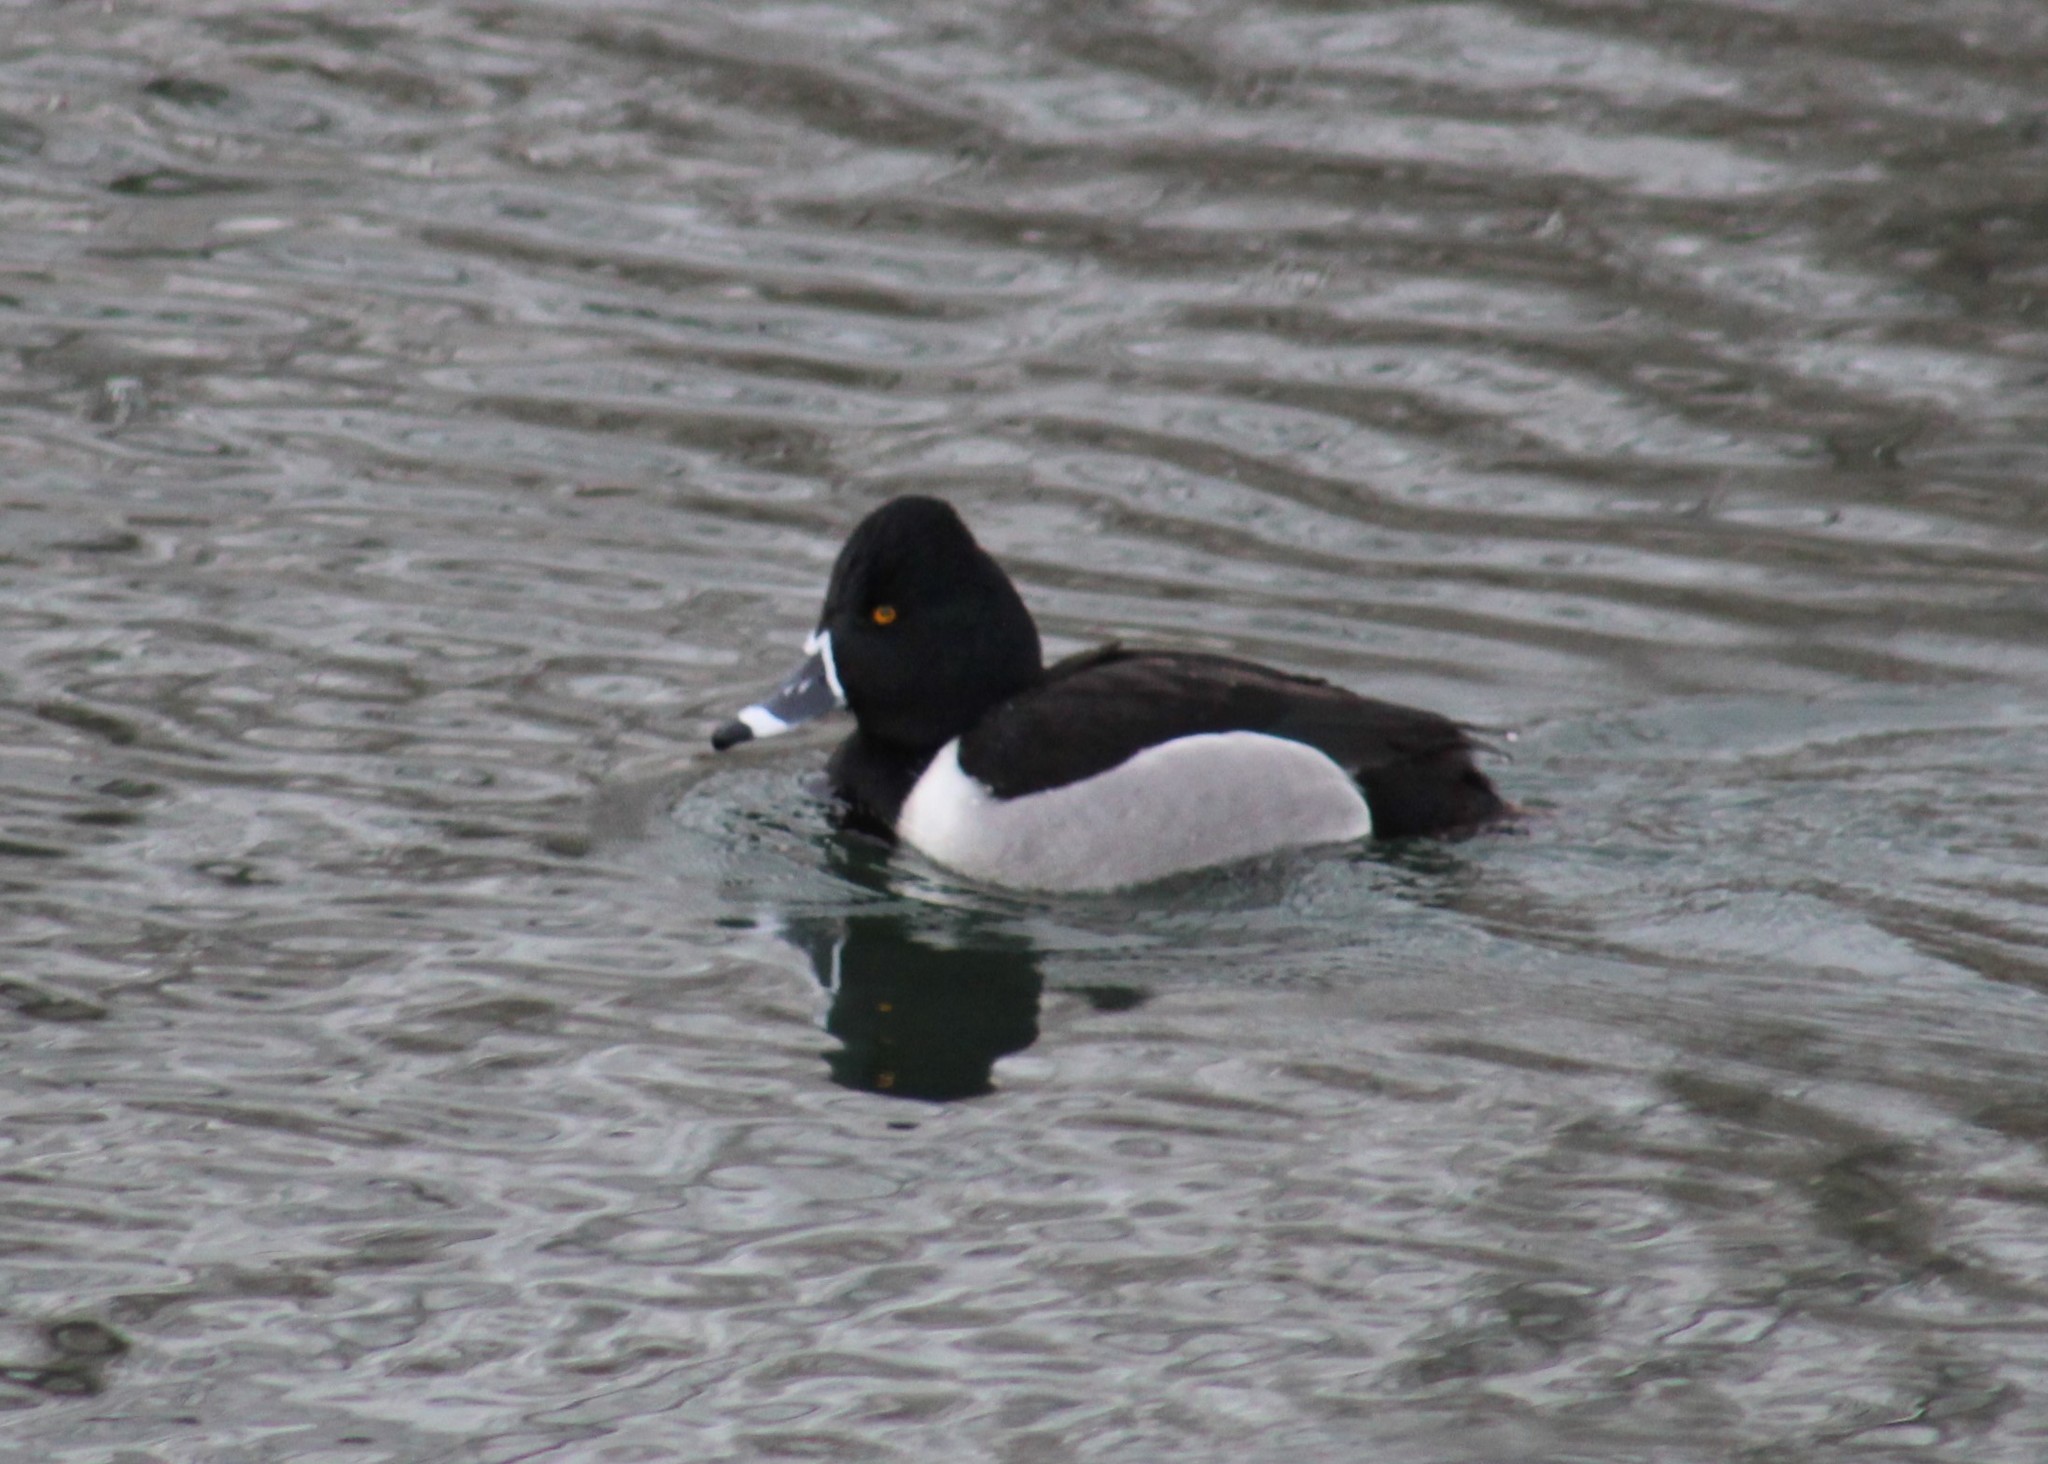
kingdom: Animalia
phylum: Chordata
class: Aves
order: Anseriformes
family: Anatidae
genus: Aythya
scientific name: Aythya collaris
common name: Ring-necked duck
